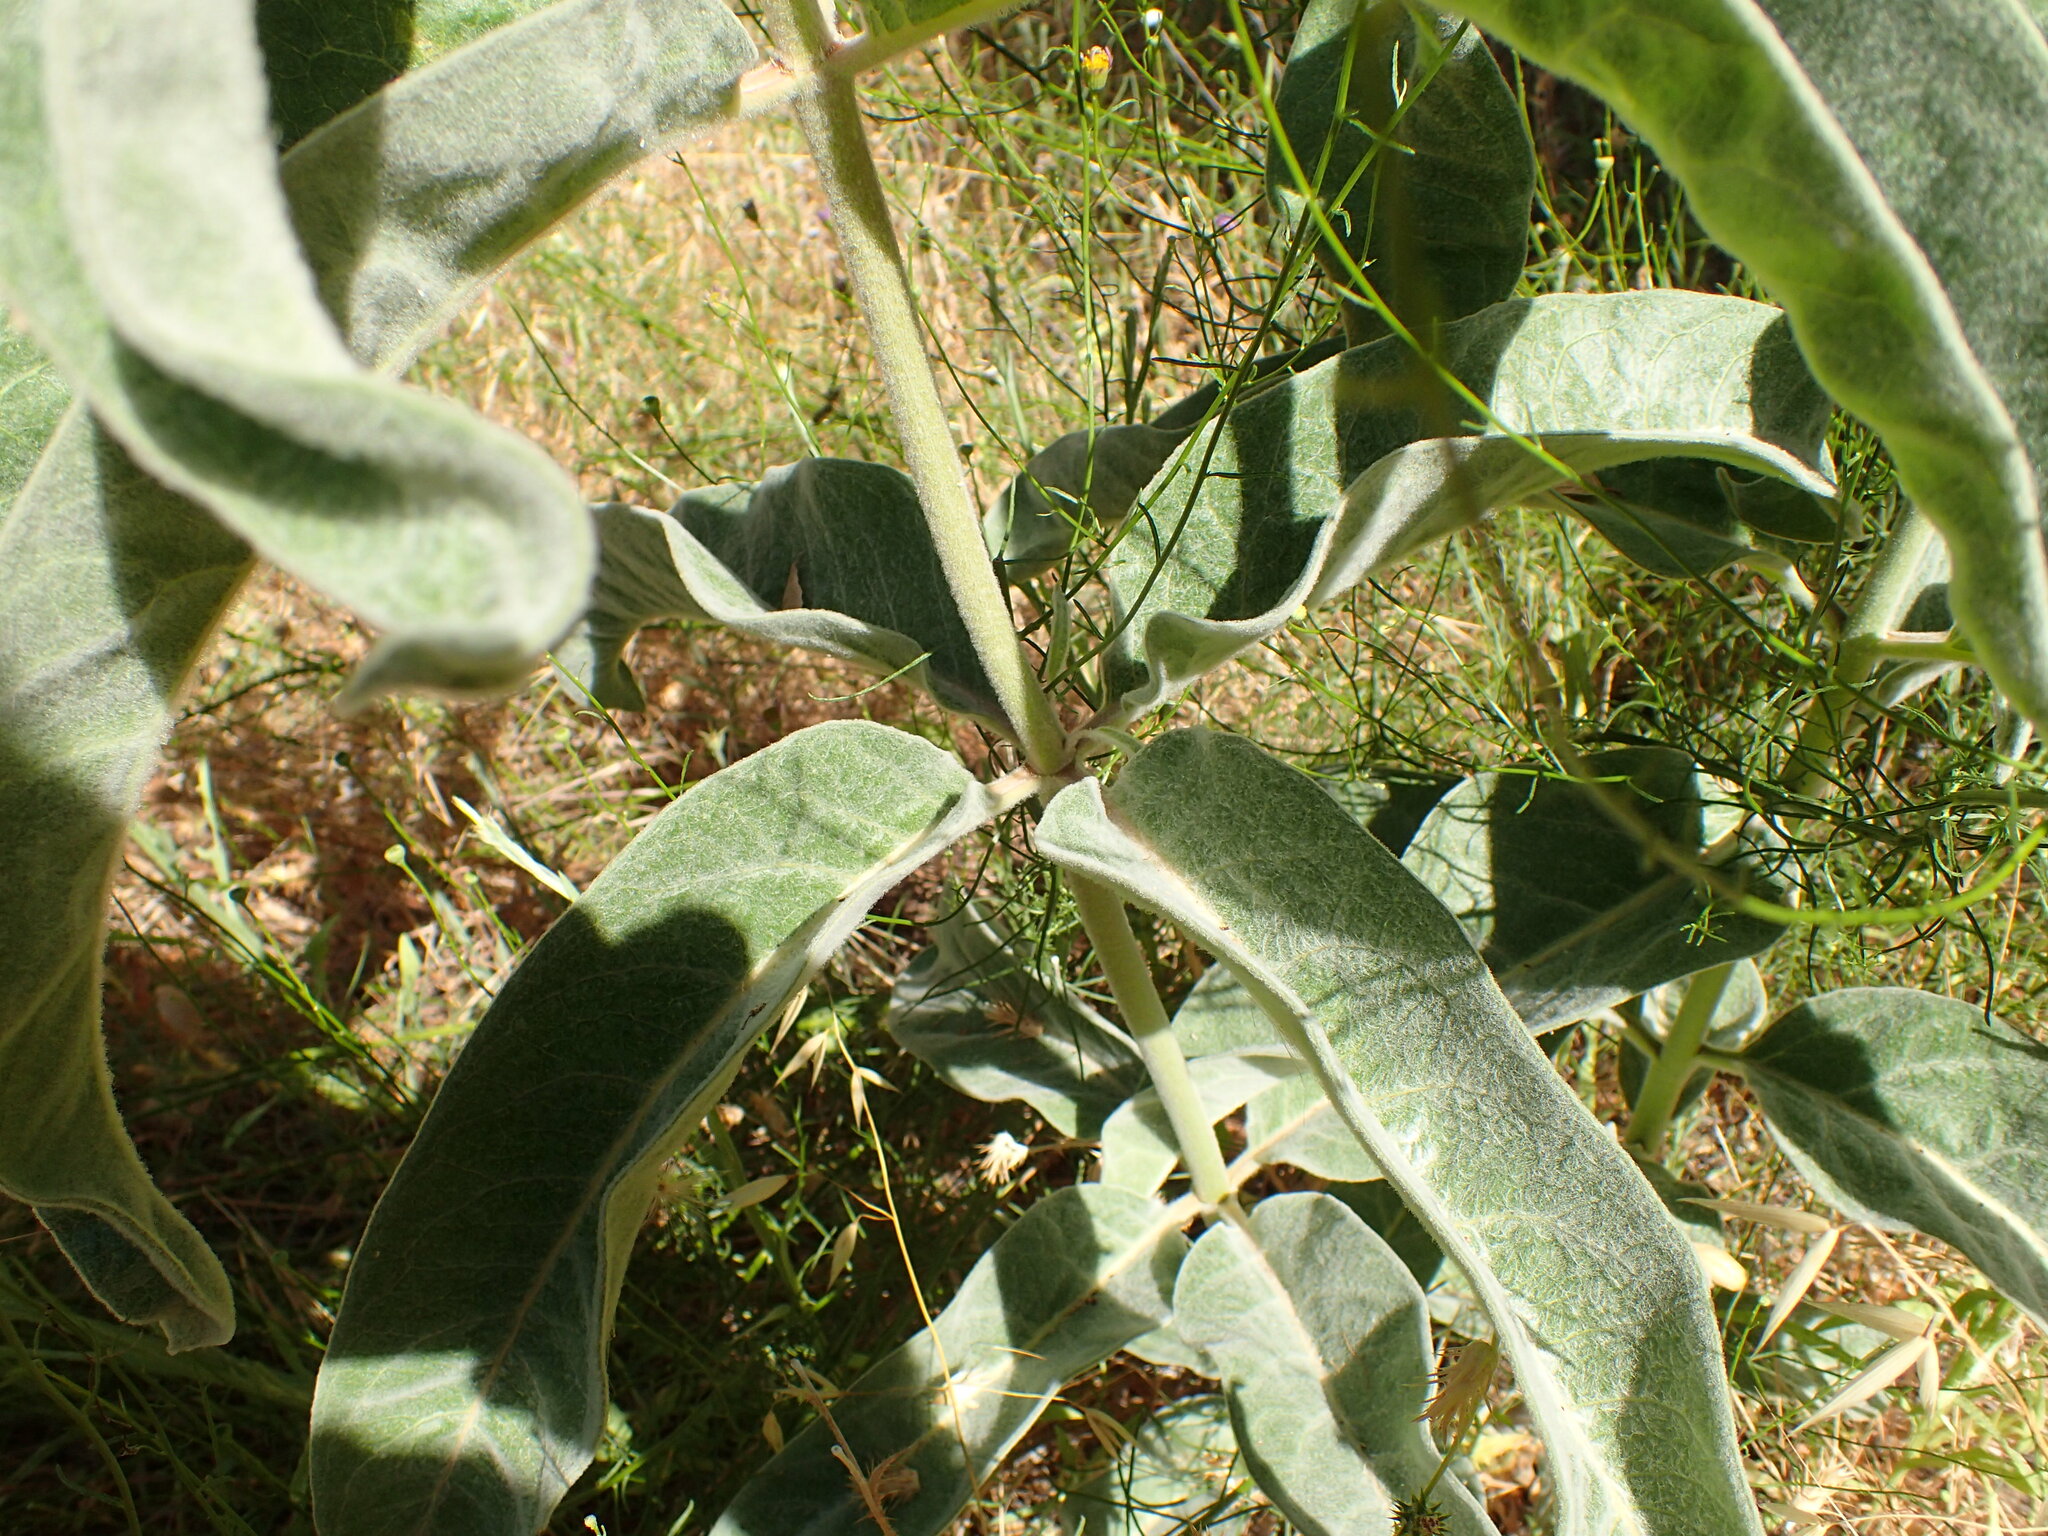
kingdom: Plantae
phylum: Tracheophyta
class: Magnoliopsida
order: Gentianales
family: Apocynaceae
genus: Asclepias
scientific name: Asclepias eriocarpa
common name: Indian milkweed
